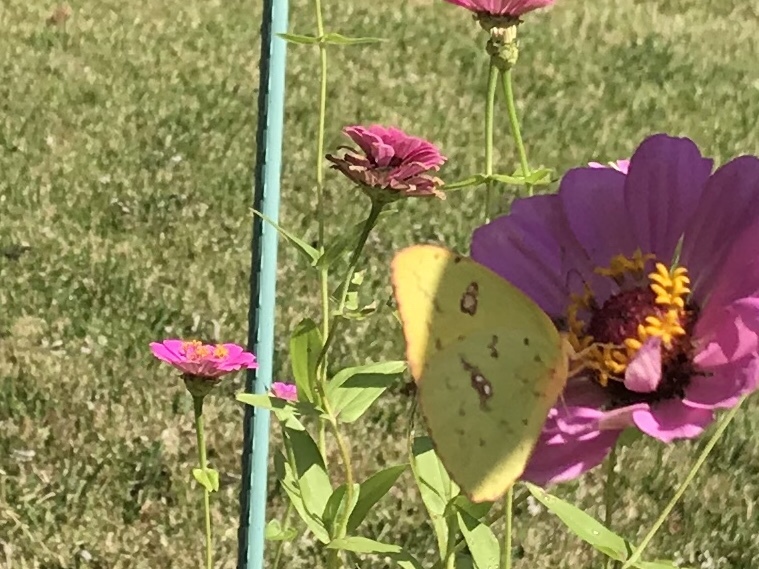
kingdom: Animalia
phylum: Arthropoda
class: Insecta
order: Lepidoptera
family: Pieridae
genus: Phoebis
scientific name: Phoebis sennae
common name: Cloudless sulphur
